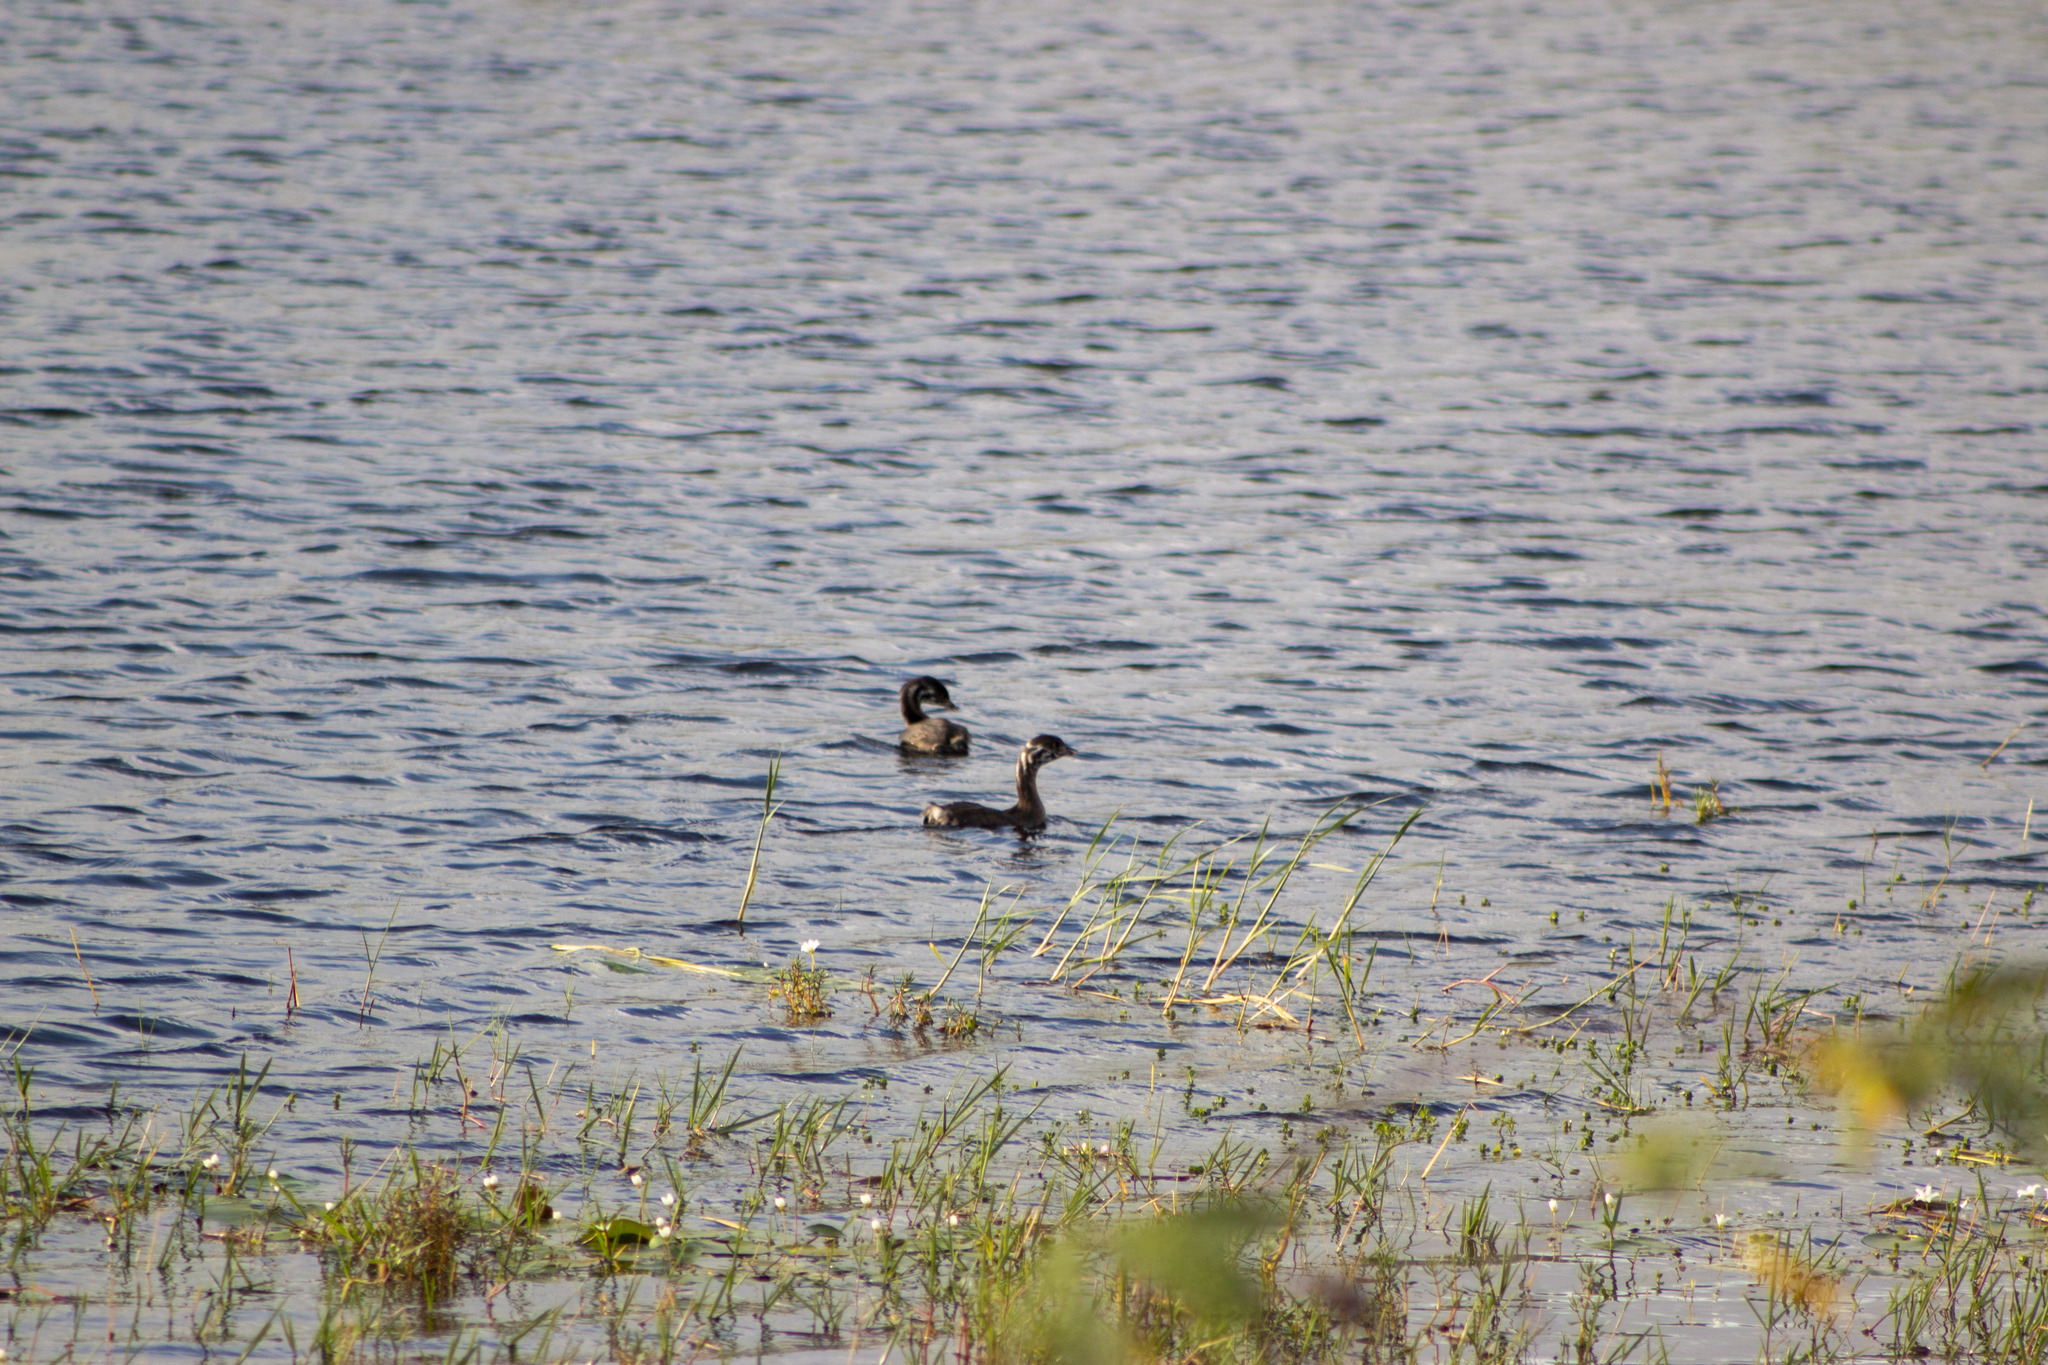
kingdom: Animalia
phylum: Chordata
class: Aves
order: Podicipediformes
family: Podicipedidae
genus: Podilymbus
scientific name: Podilymbus podiceps
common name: Pied-billed grebe
